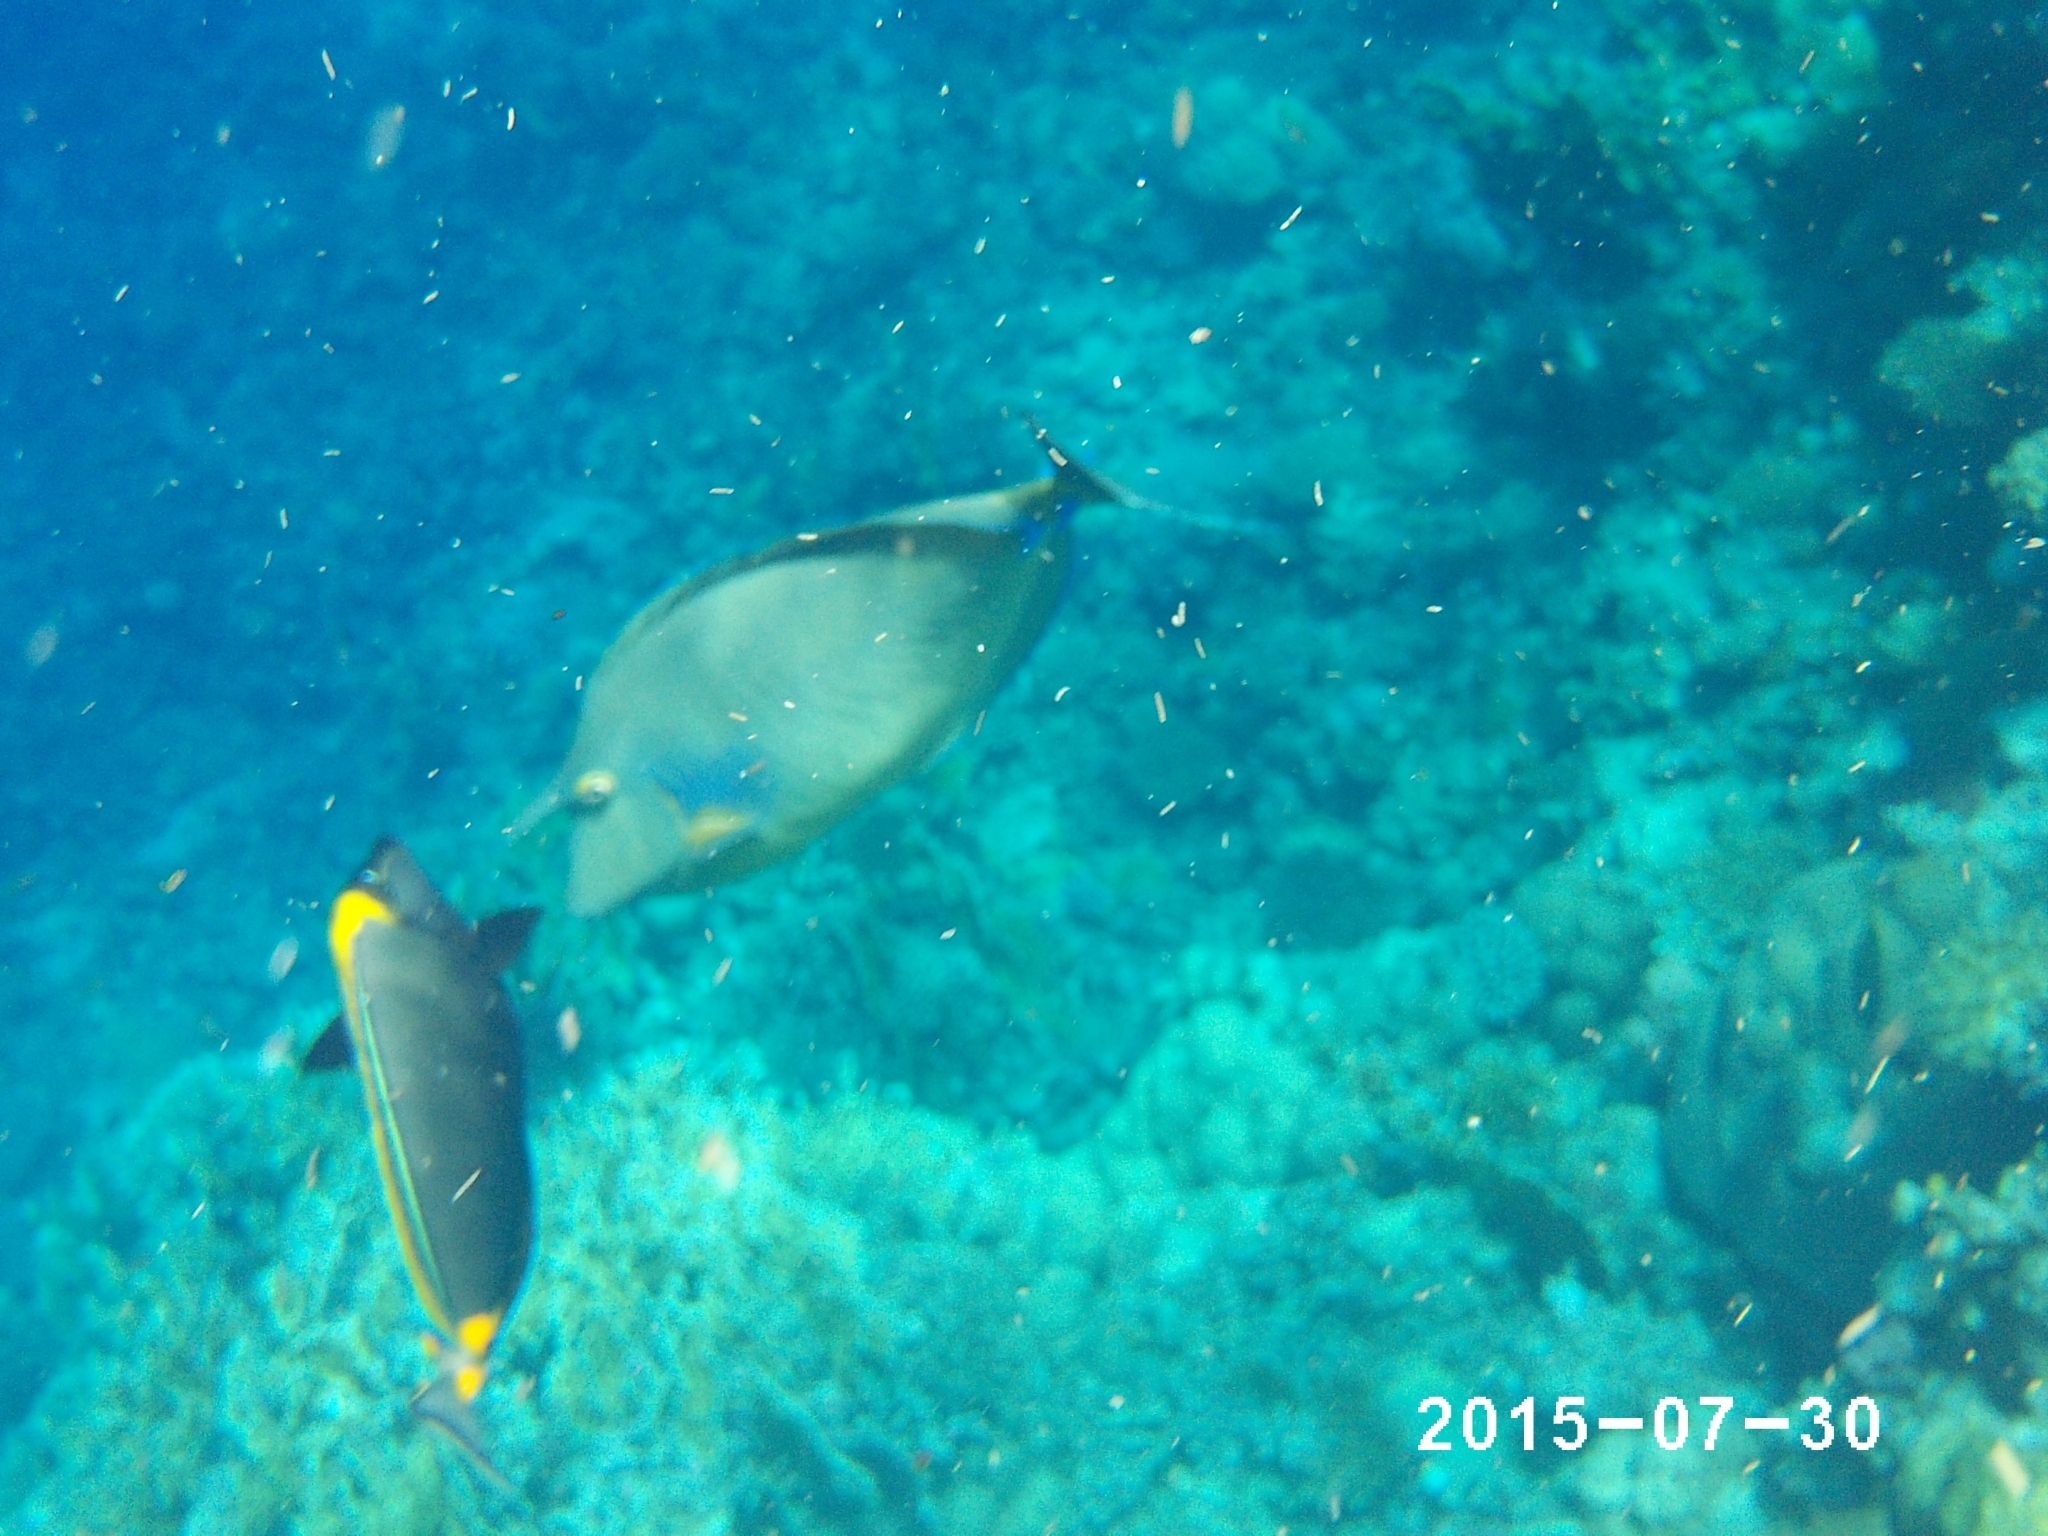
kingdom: Animalia
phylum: Chordata
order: Perciformes
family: Acanthuridae
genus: Naso
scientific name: Naso unicornis
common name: Bluespine unicornfish
